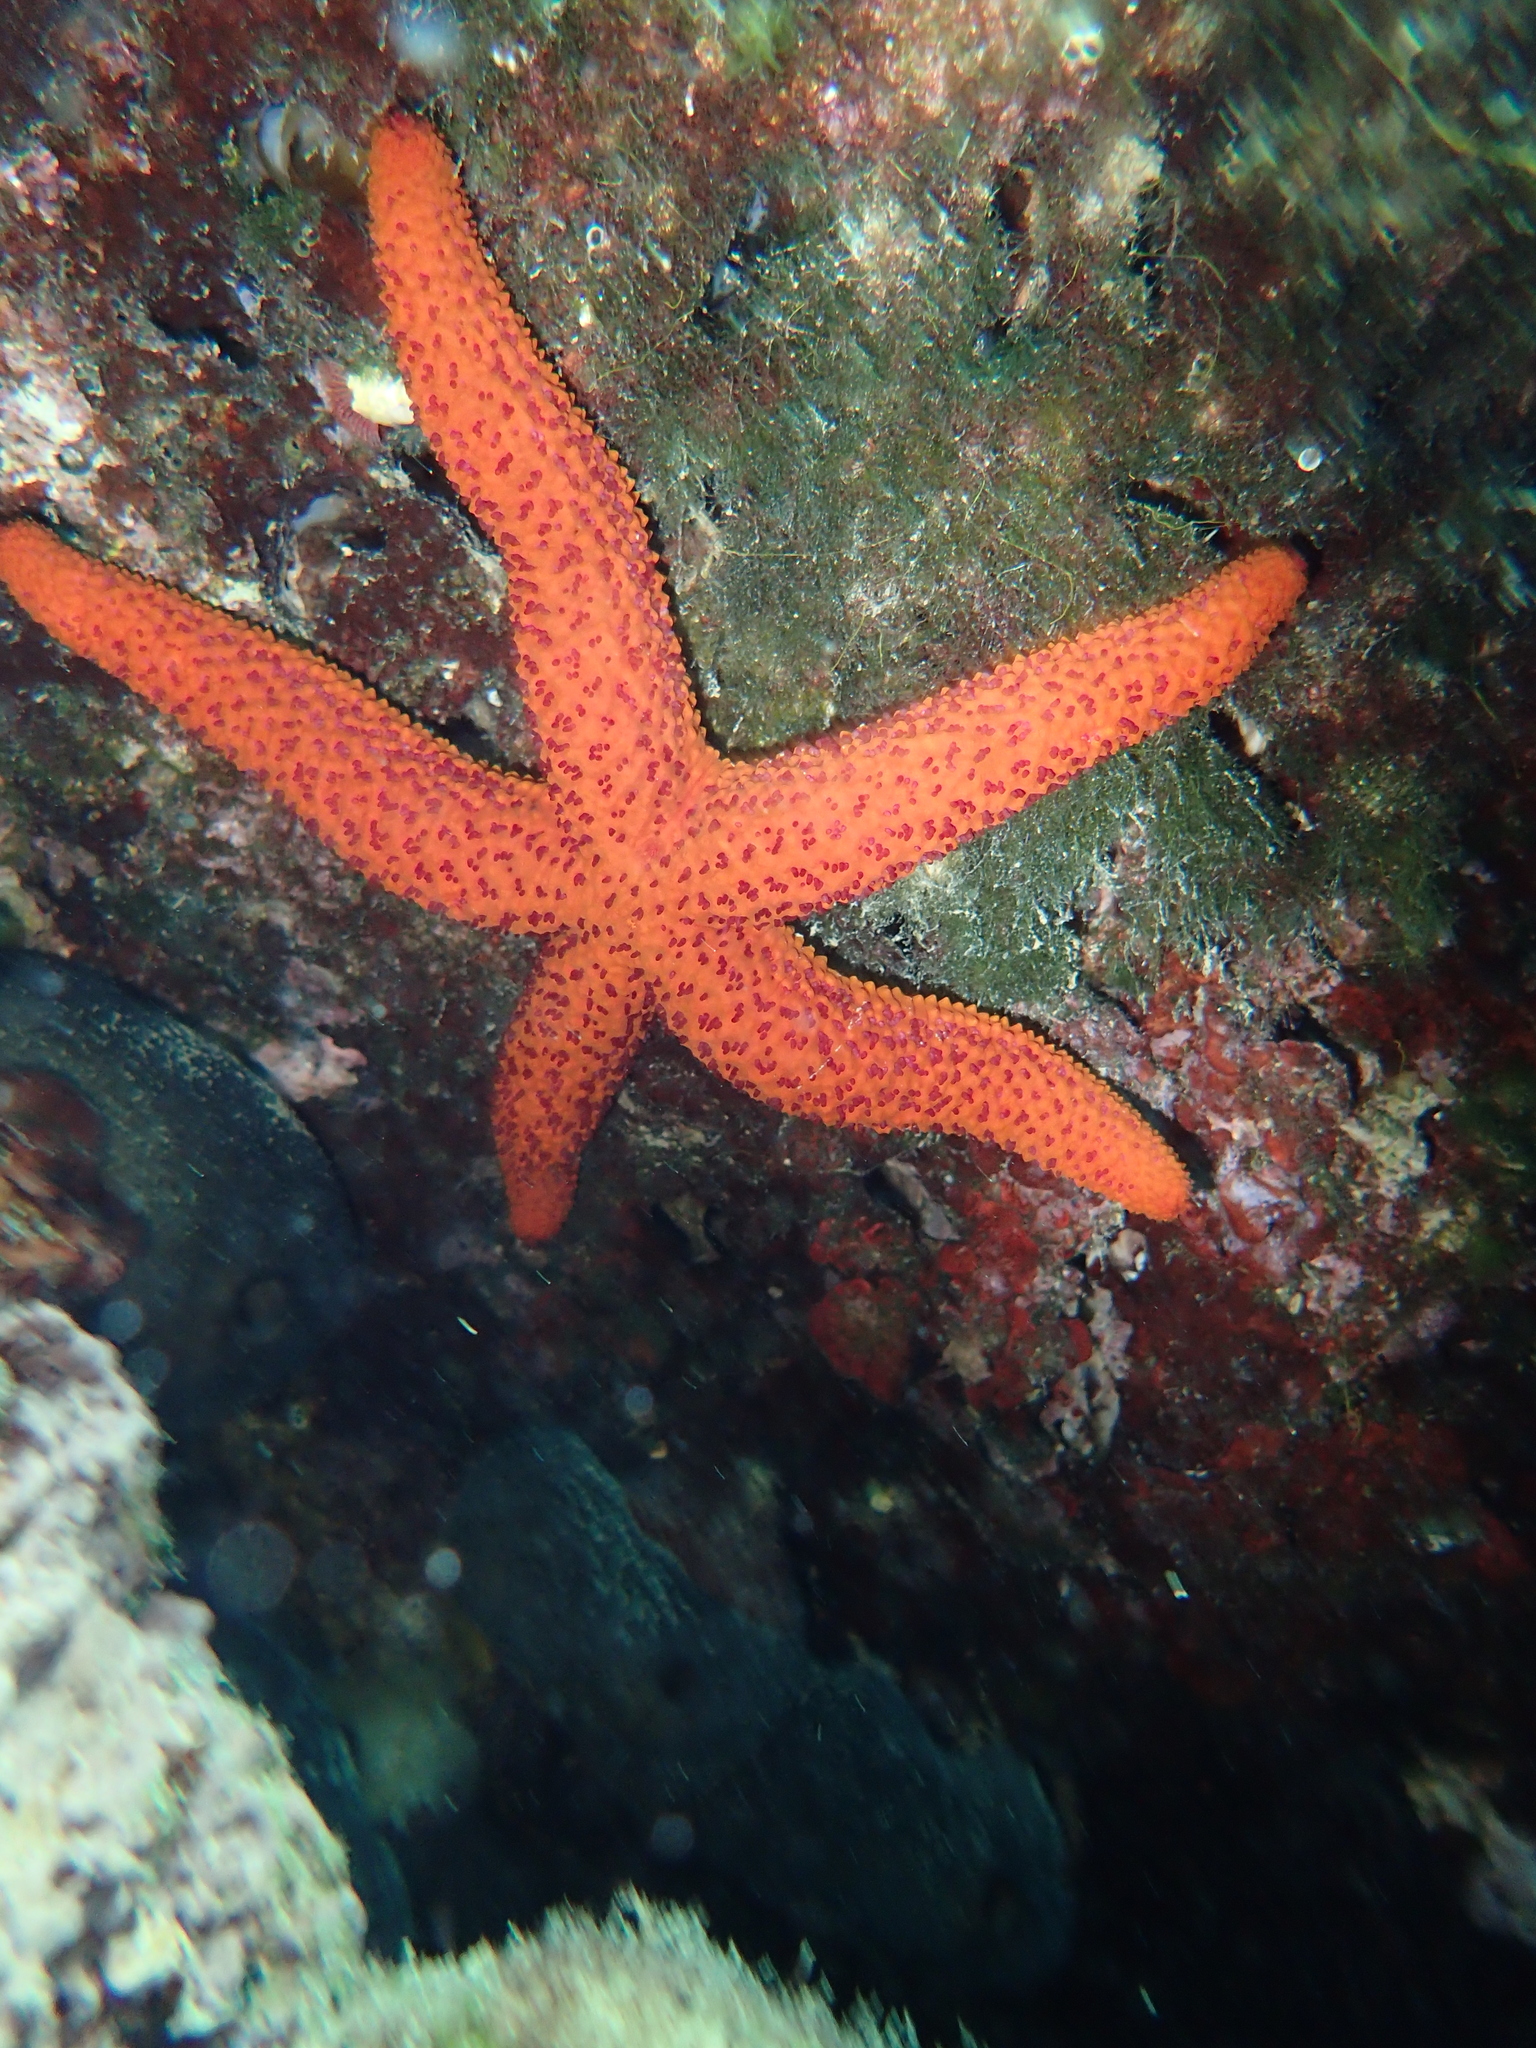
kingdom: Animalia
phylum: Echinodermata
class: Asteroidea
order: Spinulosida
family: Echinasteridae
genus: Echinaster
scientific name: Echinaster sepositus
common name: Red starfish
